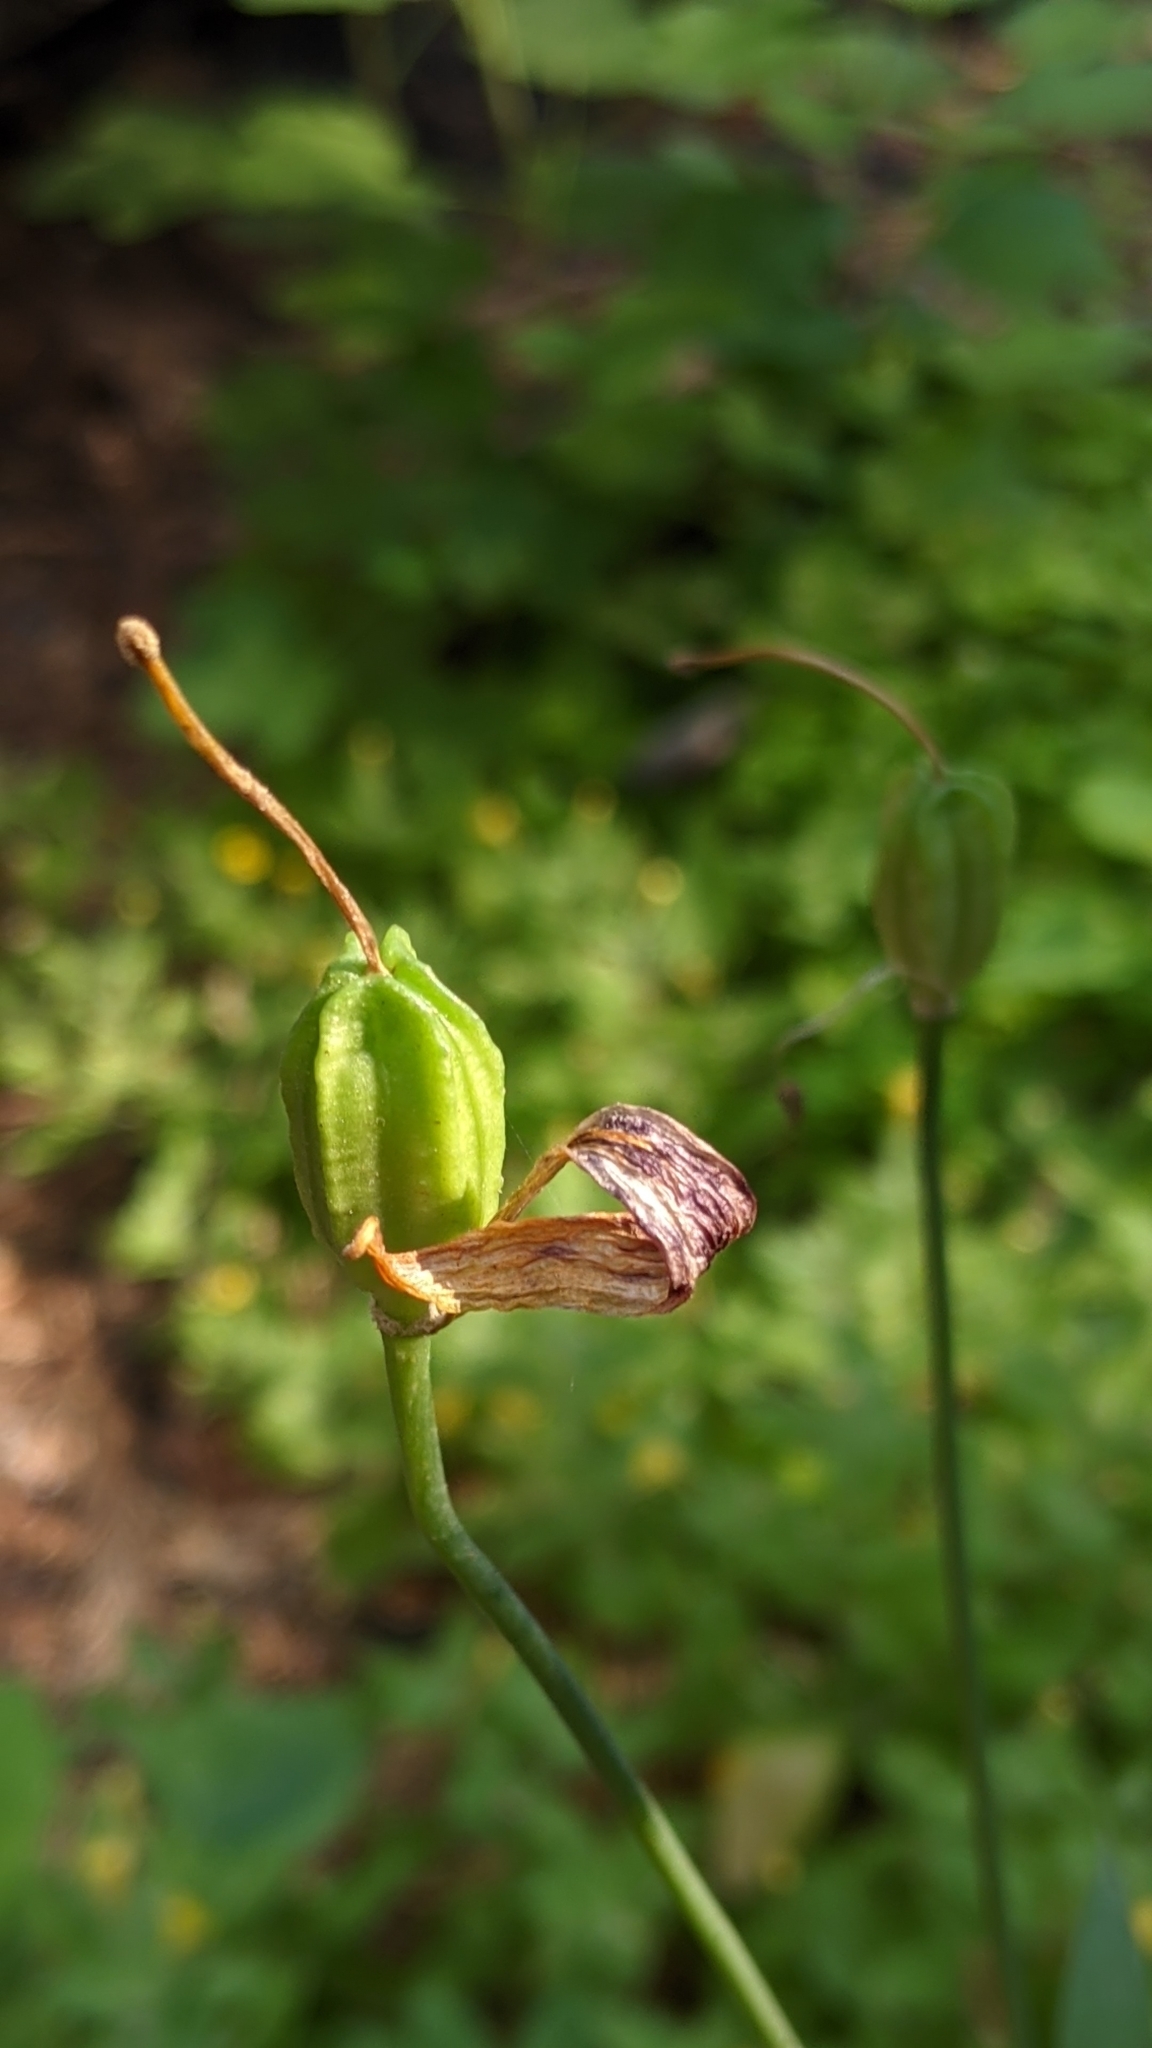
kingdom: Plantae
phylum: Tracheophyta
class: Liliopsida
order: Liliales
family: Liliaceae
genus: Lilium
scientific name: Lilium kelleyanum
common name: Kelley's lily
